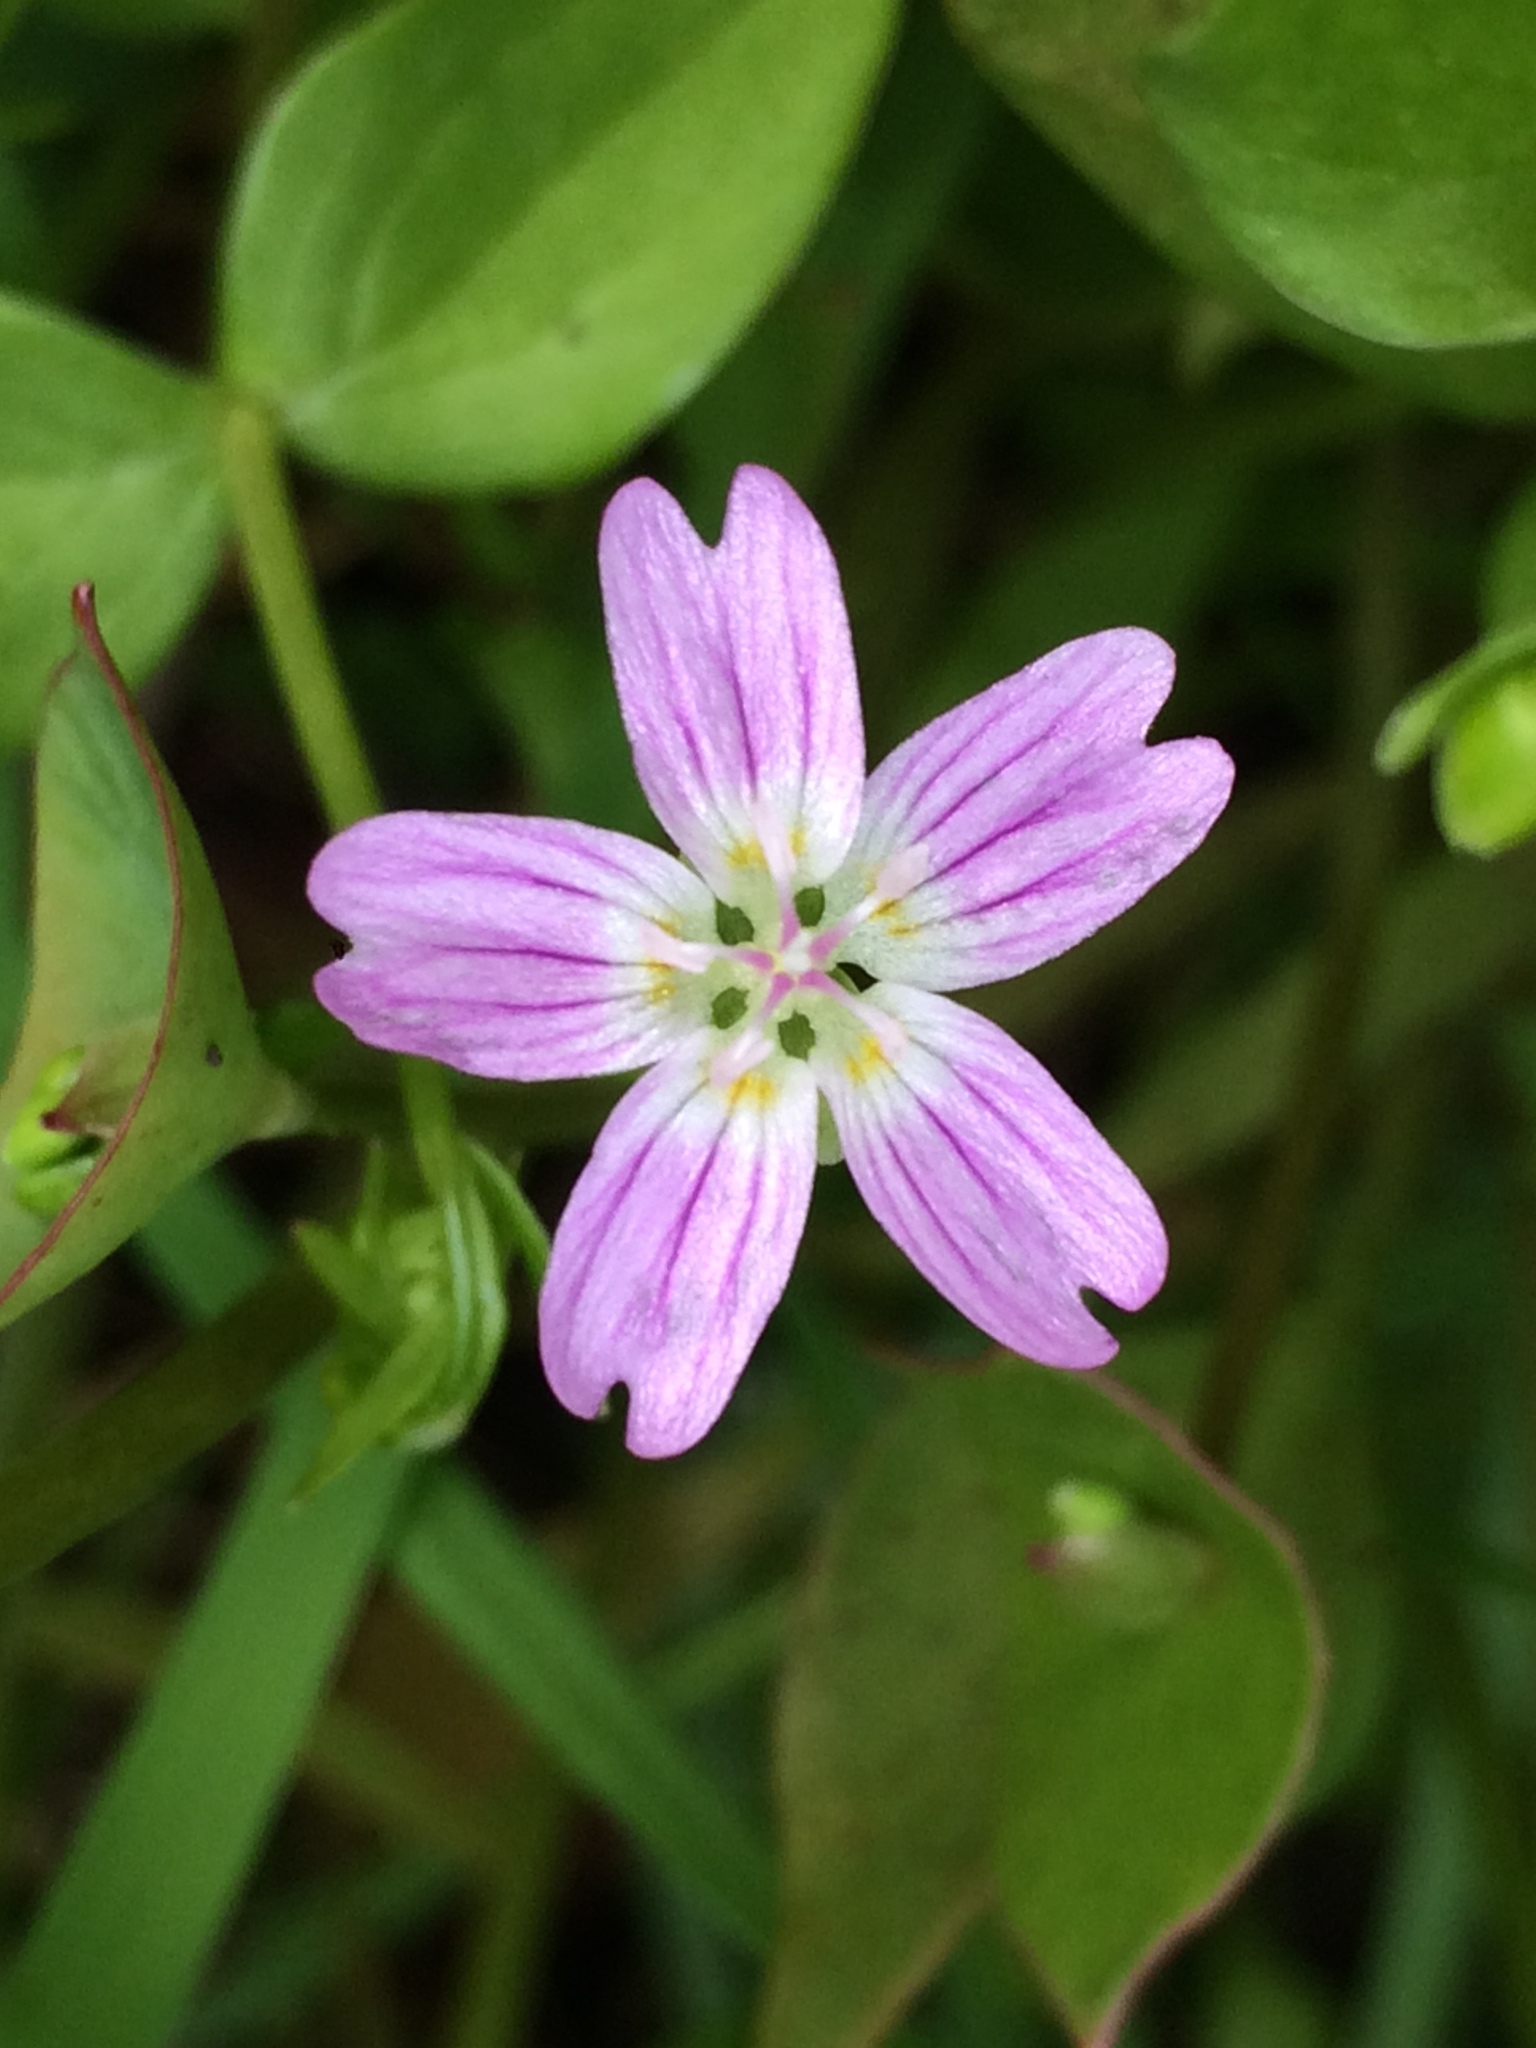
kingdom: Plantae
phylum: Tracheophyta
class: Magnoliopsida
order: Caryophyllales
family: Montiaceae
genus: Claytonia
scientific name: Claytonia sibirica
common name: Pink purslane
